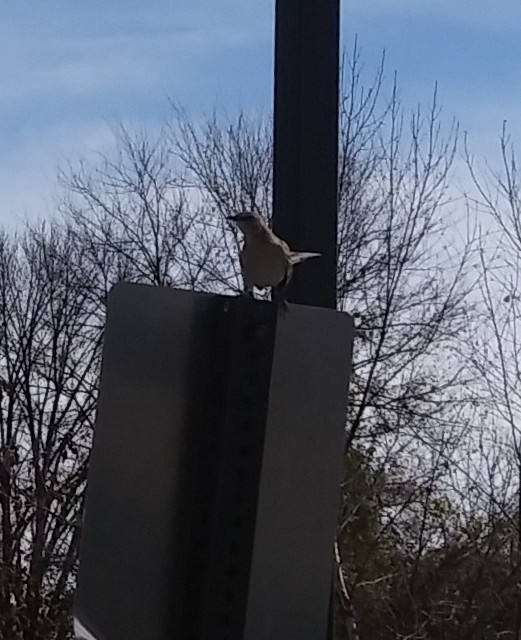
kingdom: Animalia
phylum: Chordata
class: Aves
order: Passeriformes
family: Mimidae
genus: Mimus
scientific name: Mimus polyglottos
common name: Northern mockingbird
